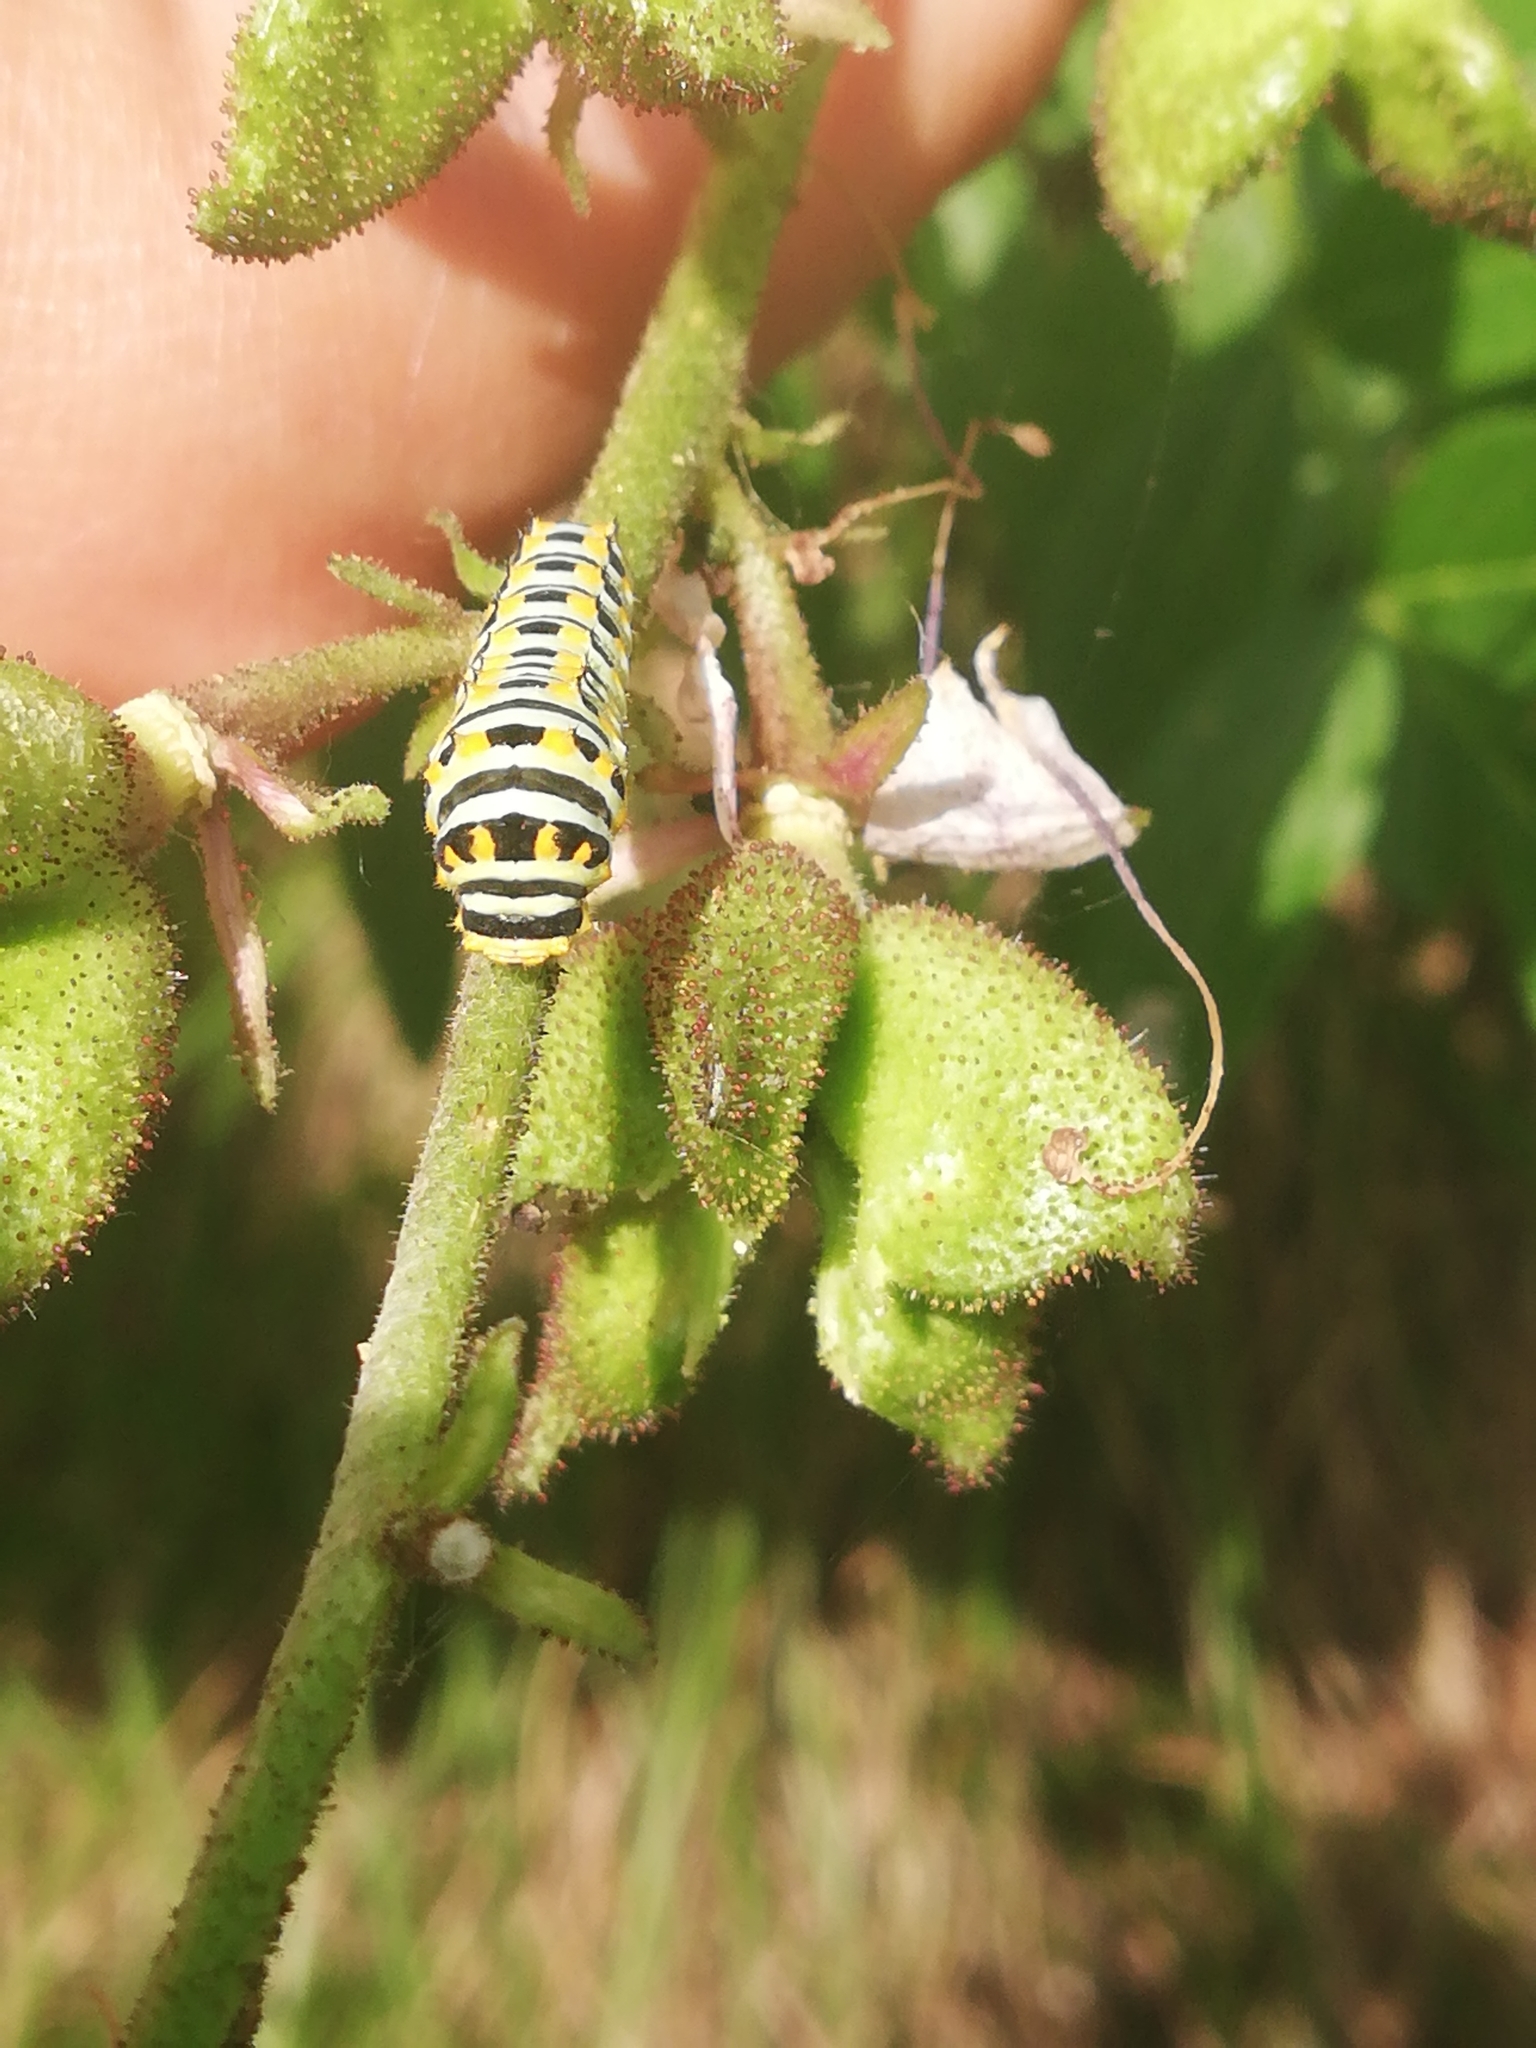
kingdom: Animalia
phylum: Arthropoda
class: Insecta
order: Lepidoptera
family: Papilionidae
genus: Papilio
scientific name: Papilio machaon
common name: Swallowtail
